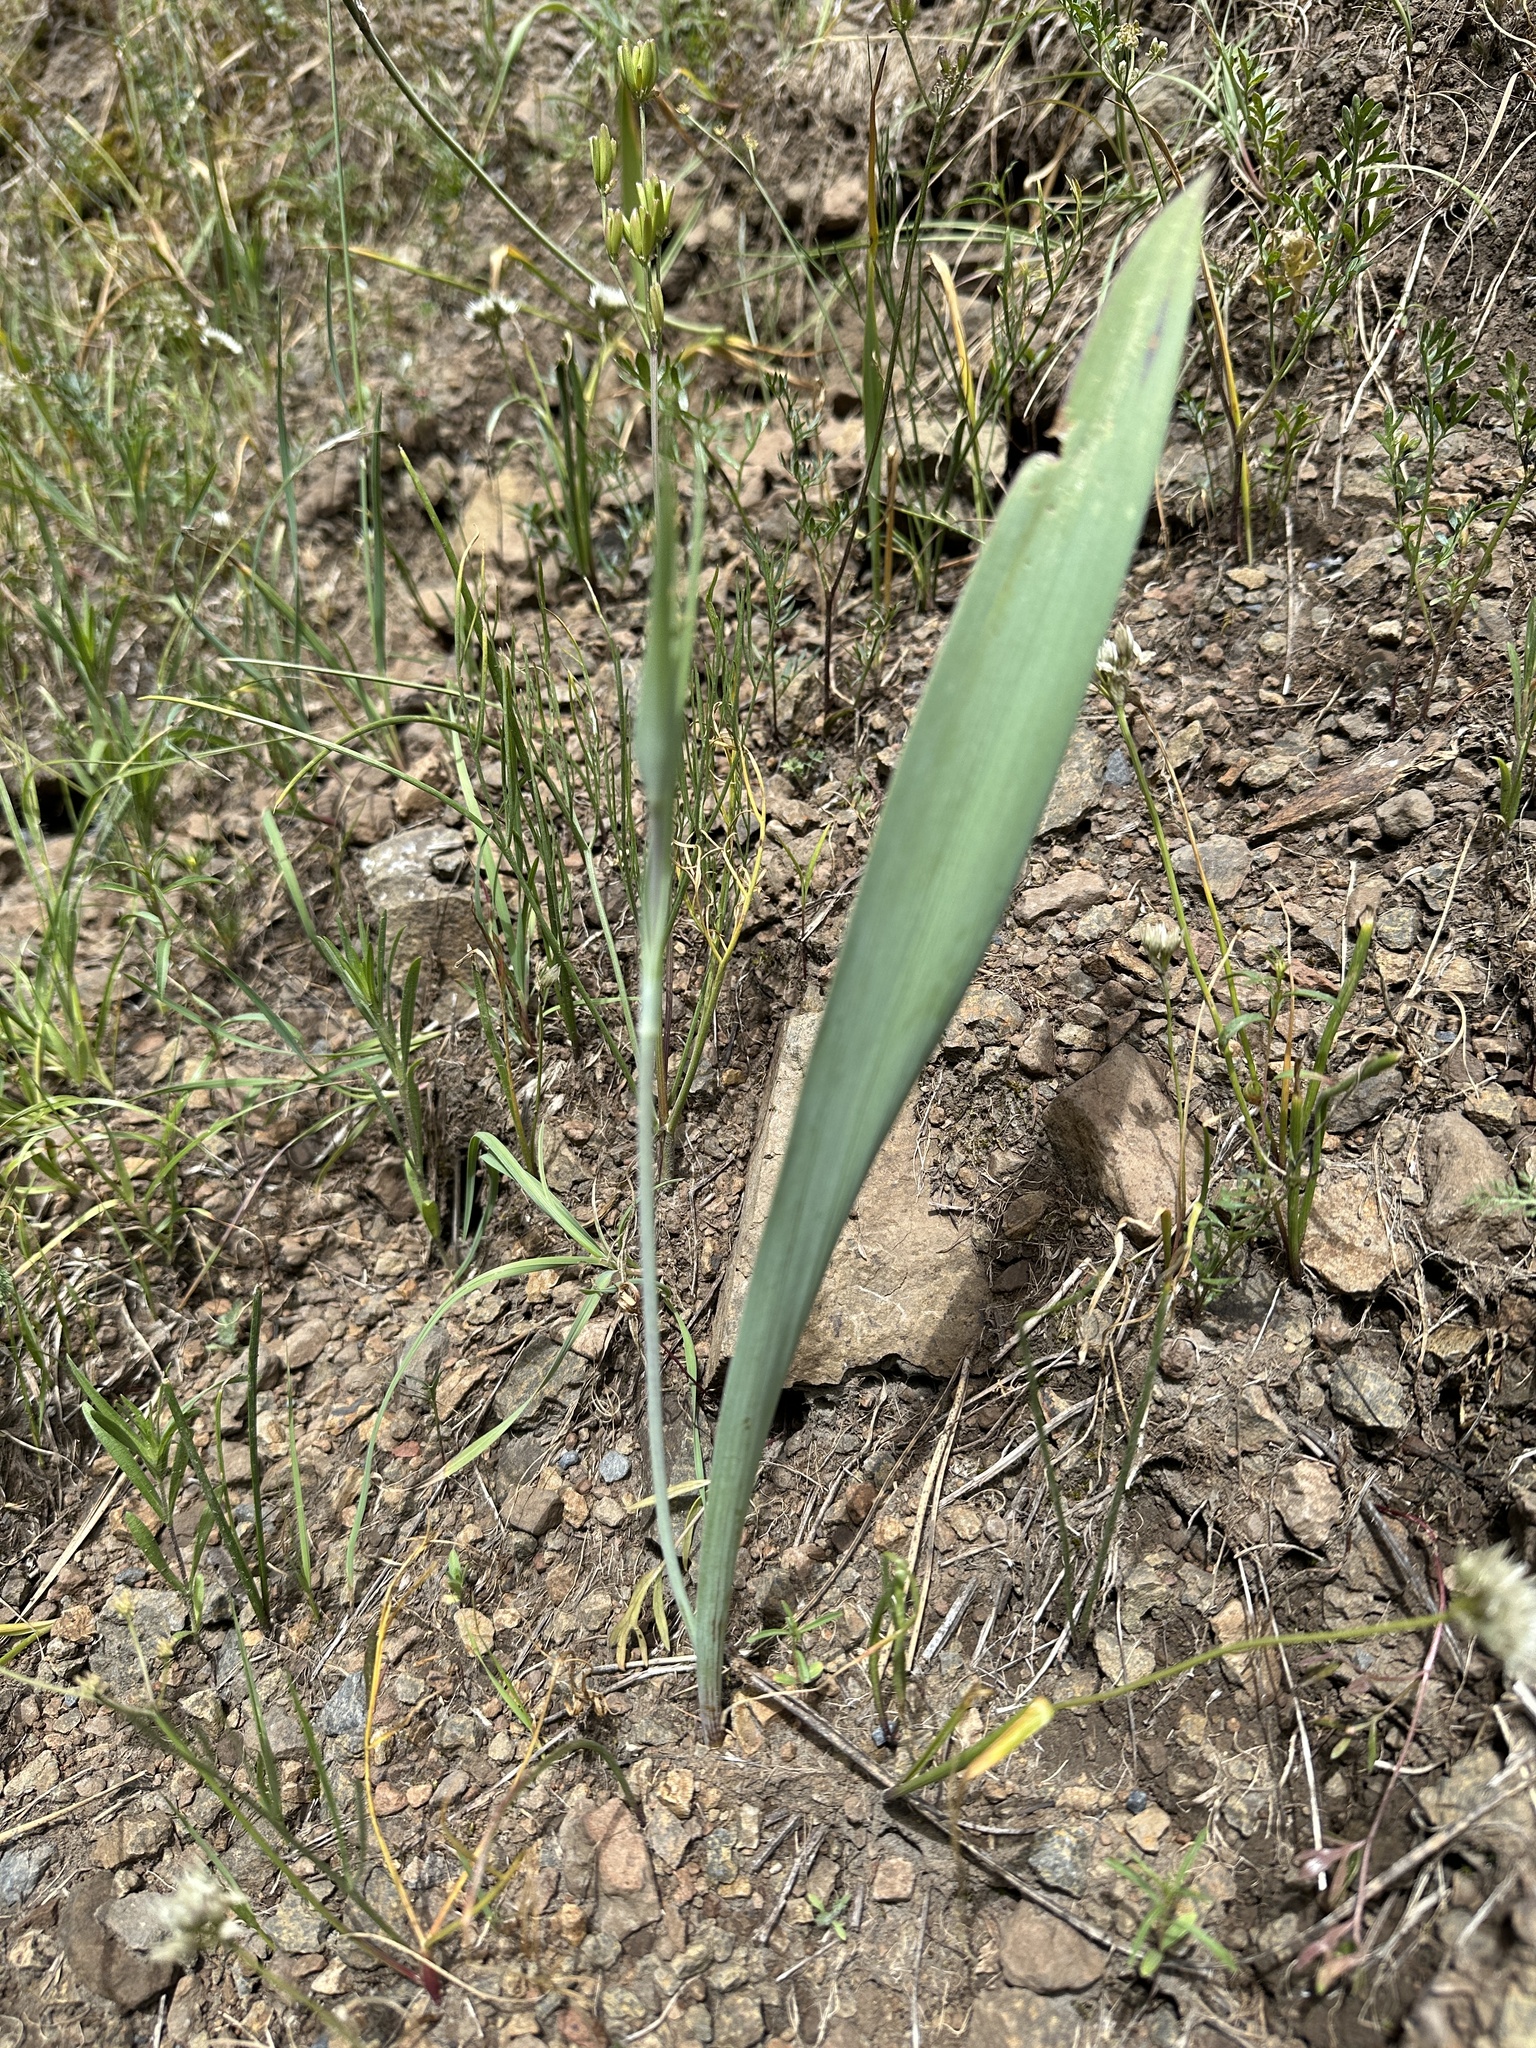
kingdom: Plantae
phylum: Tracheophyta
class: Liliopsida
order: Liliales
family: Liliaceae
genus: Calochortus
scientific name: Calochortus nitidus
